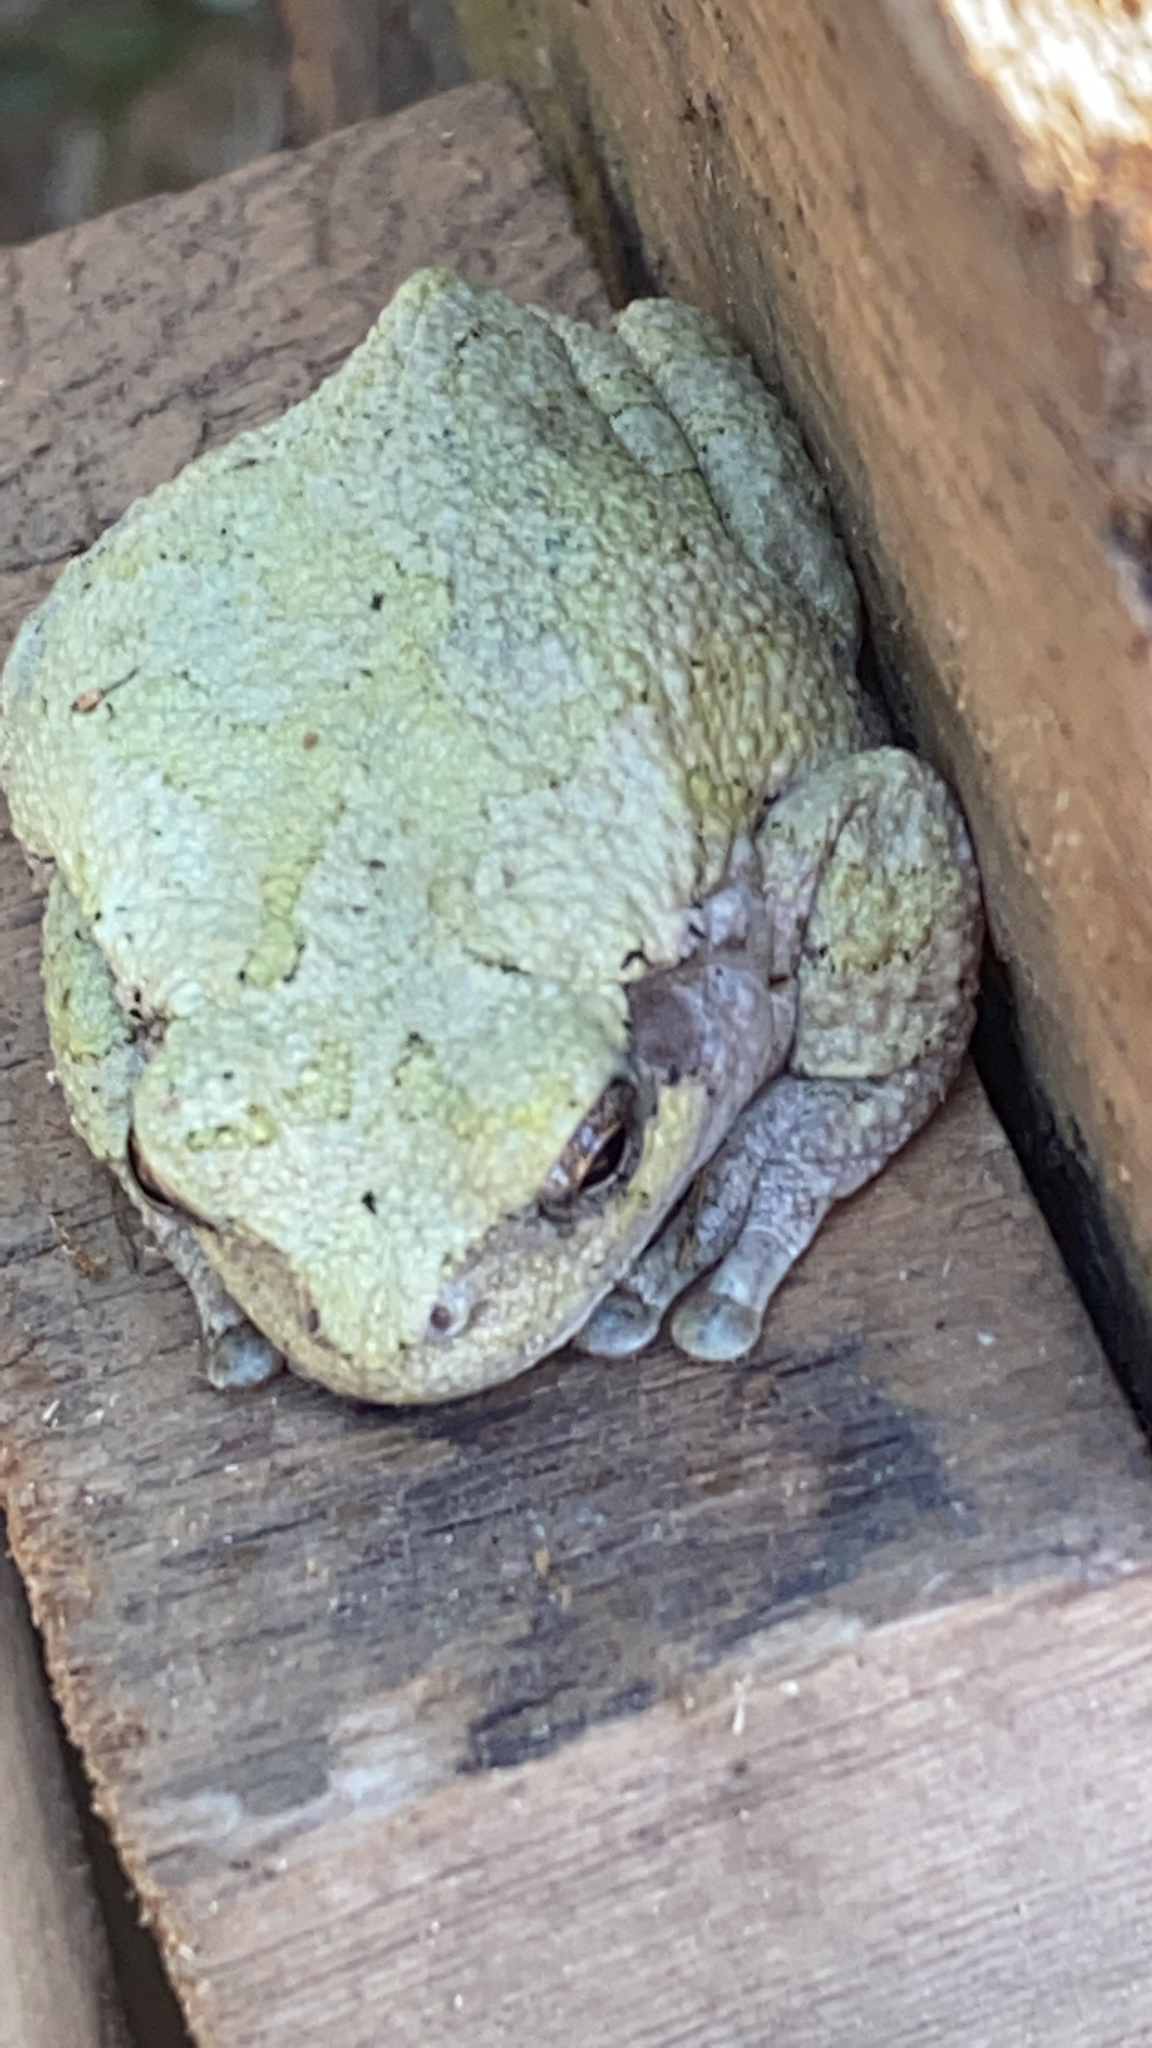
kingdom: Animalia
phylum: Chordata
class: Amphibia
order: Anura
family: Hylidae
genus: Dryophytes
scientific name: Dryophytes versicolor
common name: Gray treefrog
